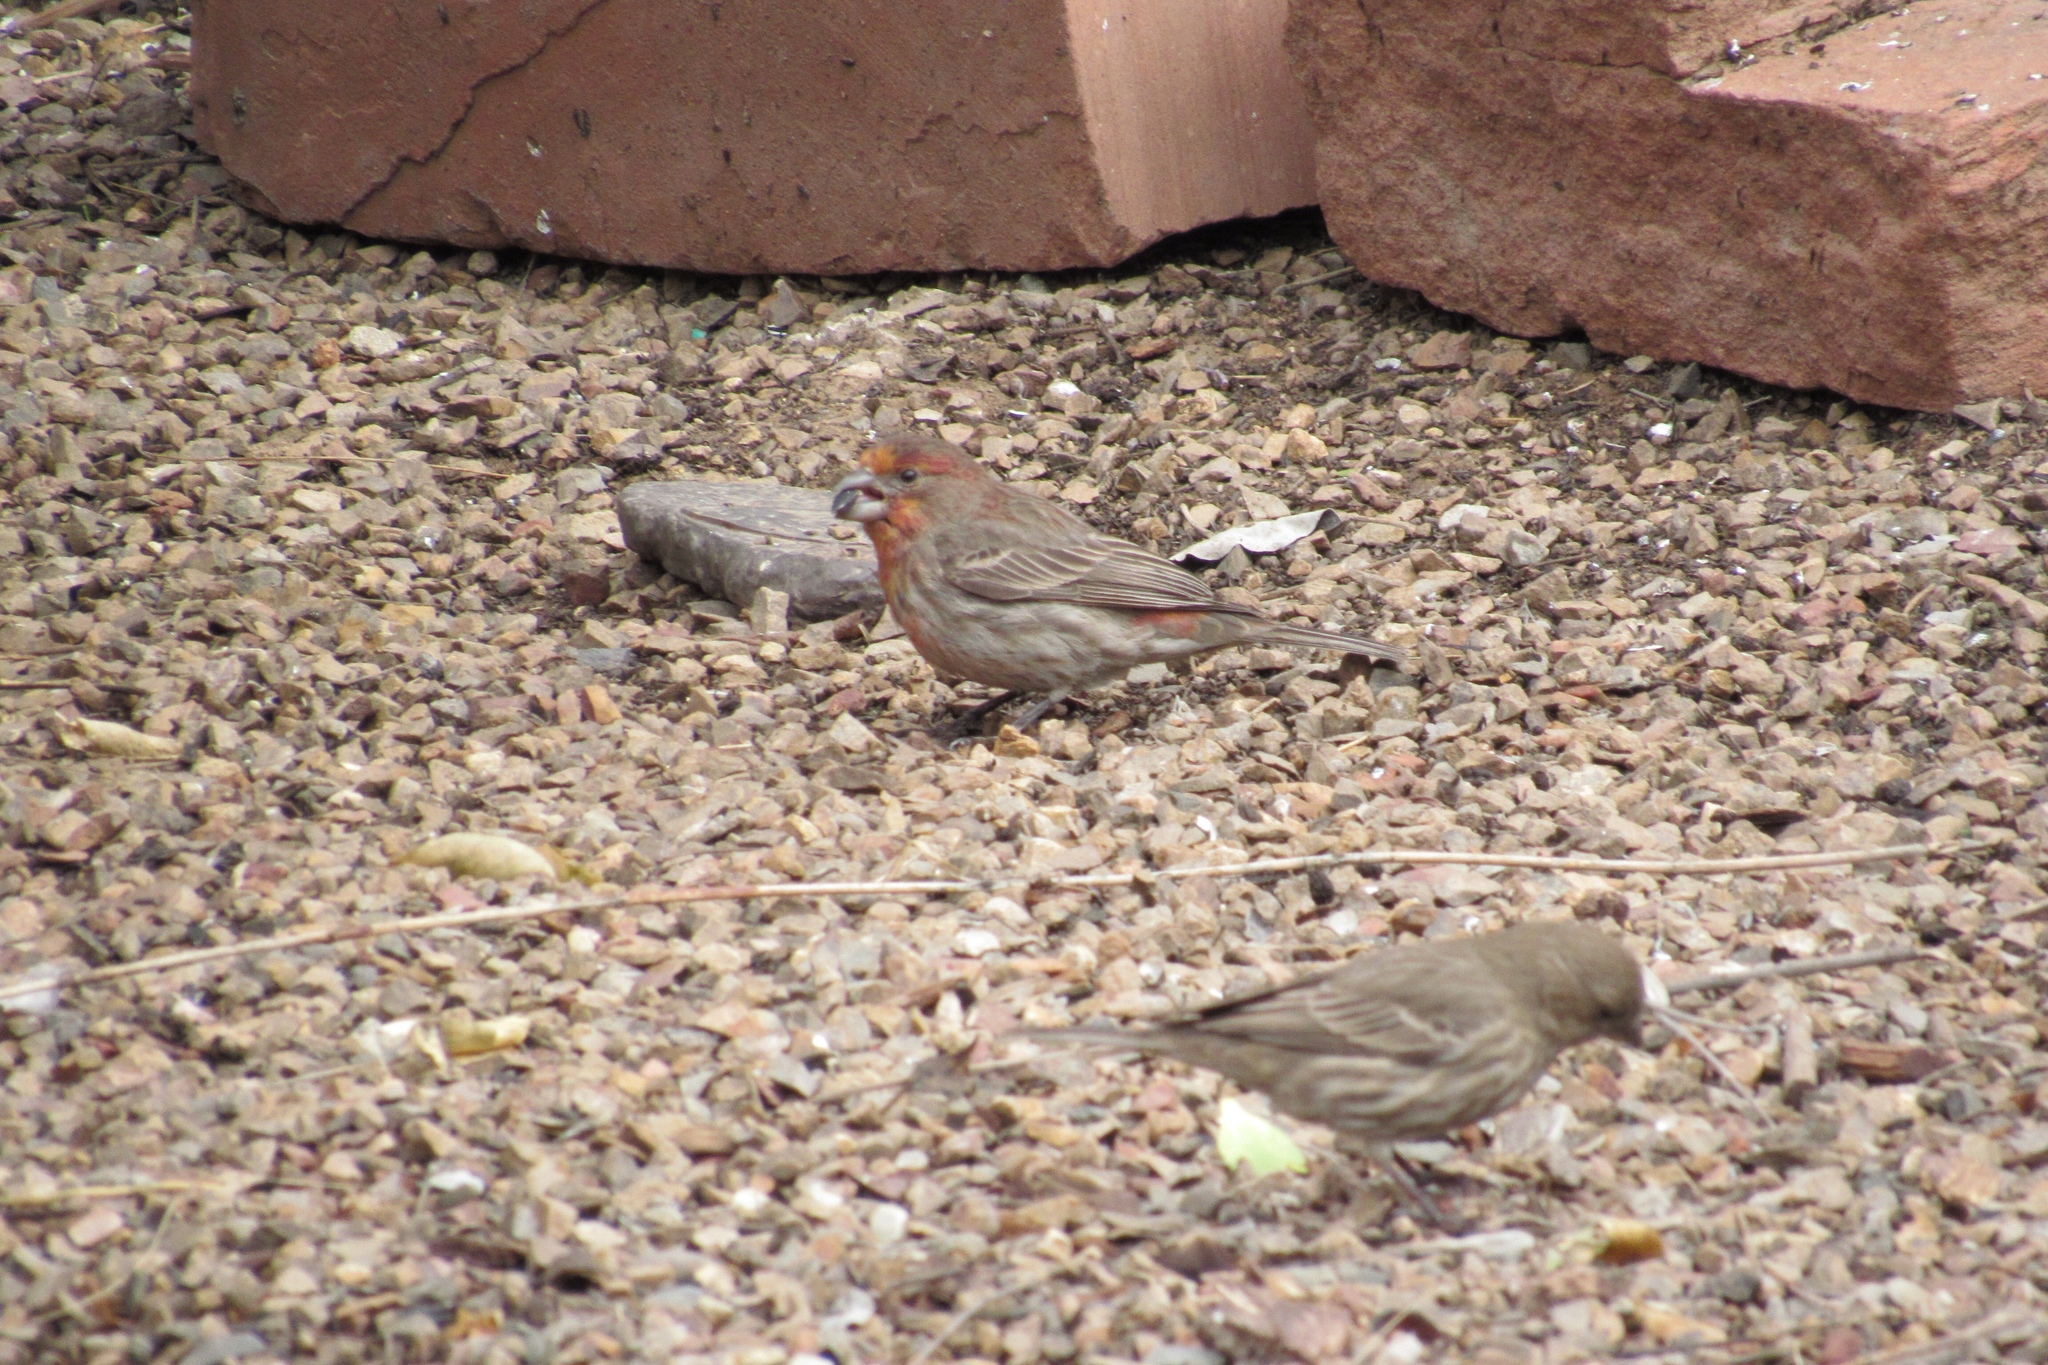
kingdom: Animalia
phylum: Chordata
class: Aves
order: Passeriformes
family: Fringillidae
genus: Haemorhous
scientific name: Haemorhous mexicanus
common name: House finch
